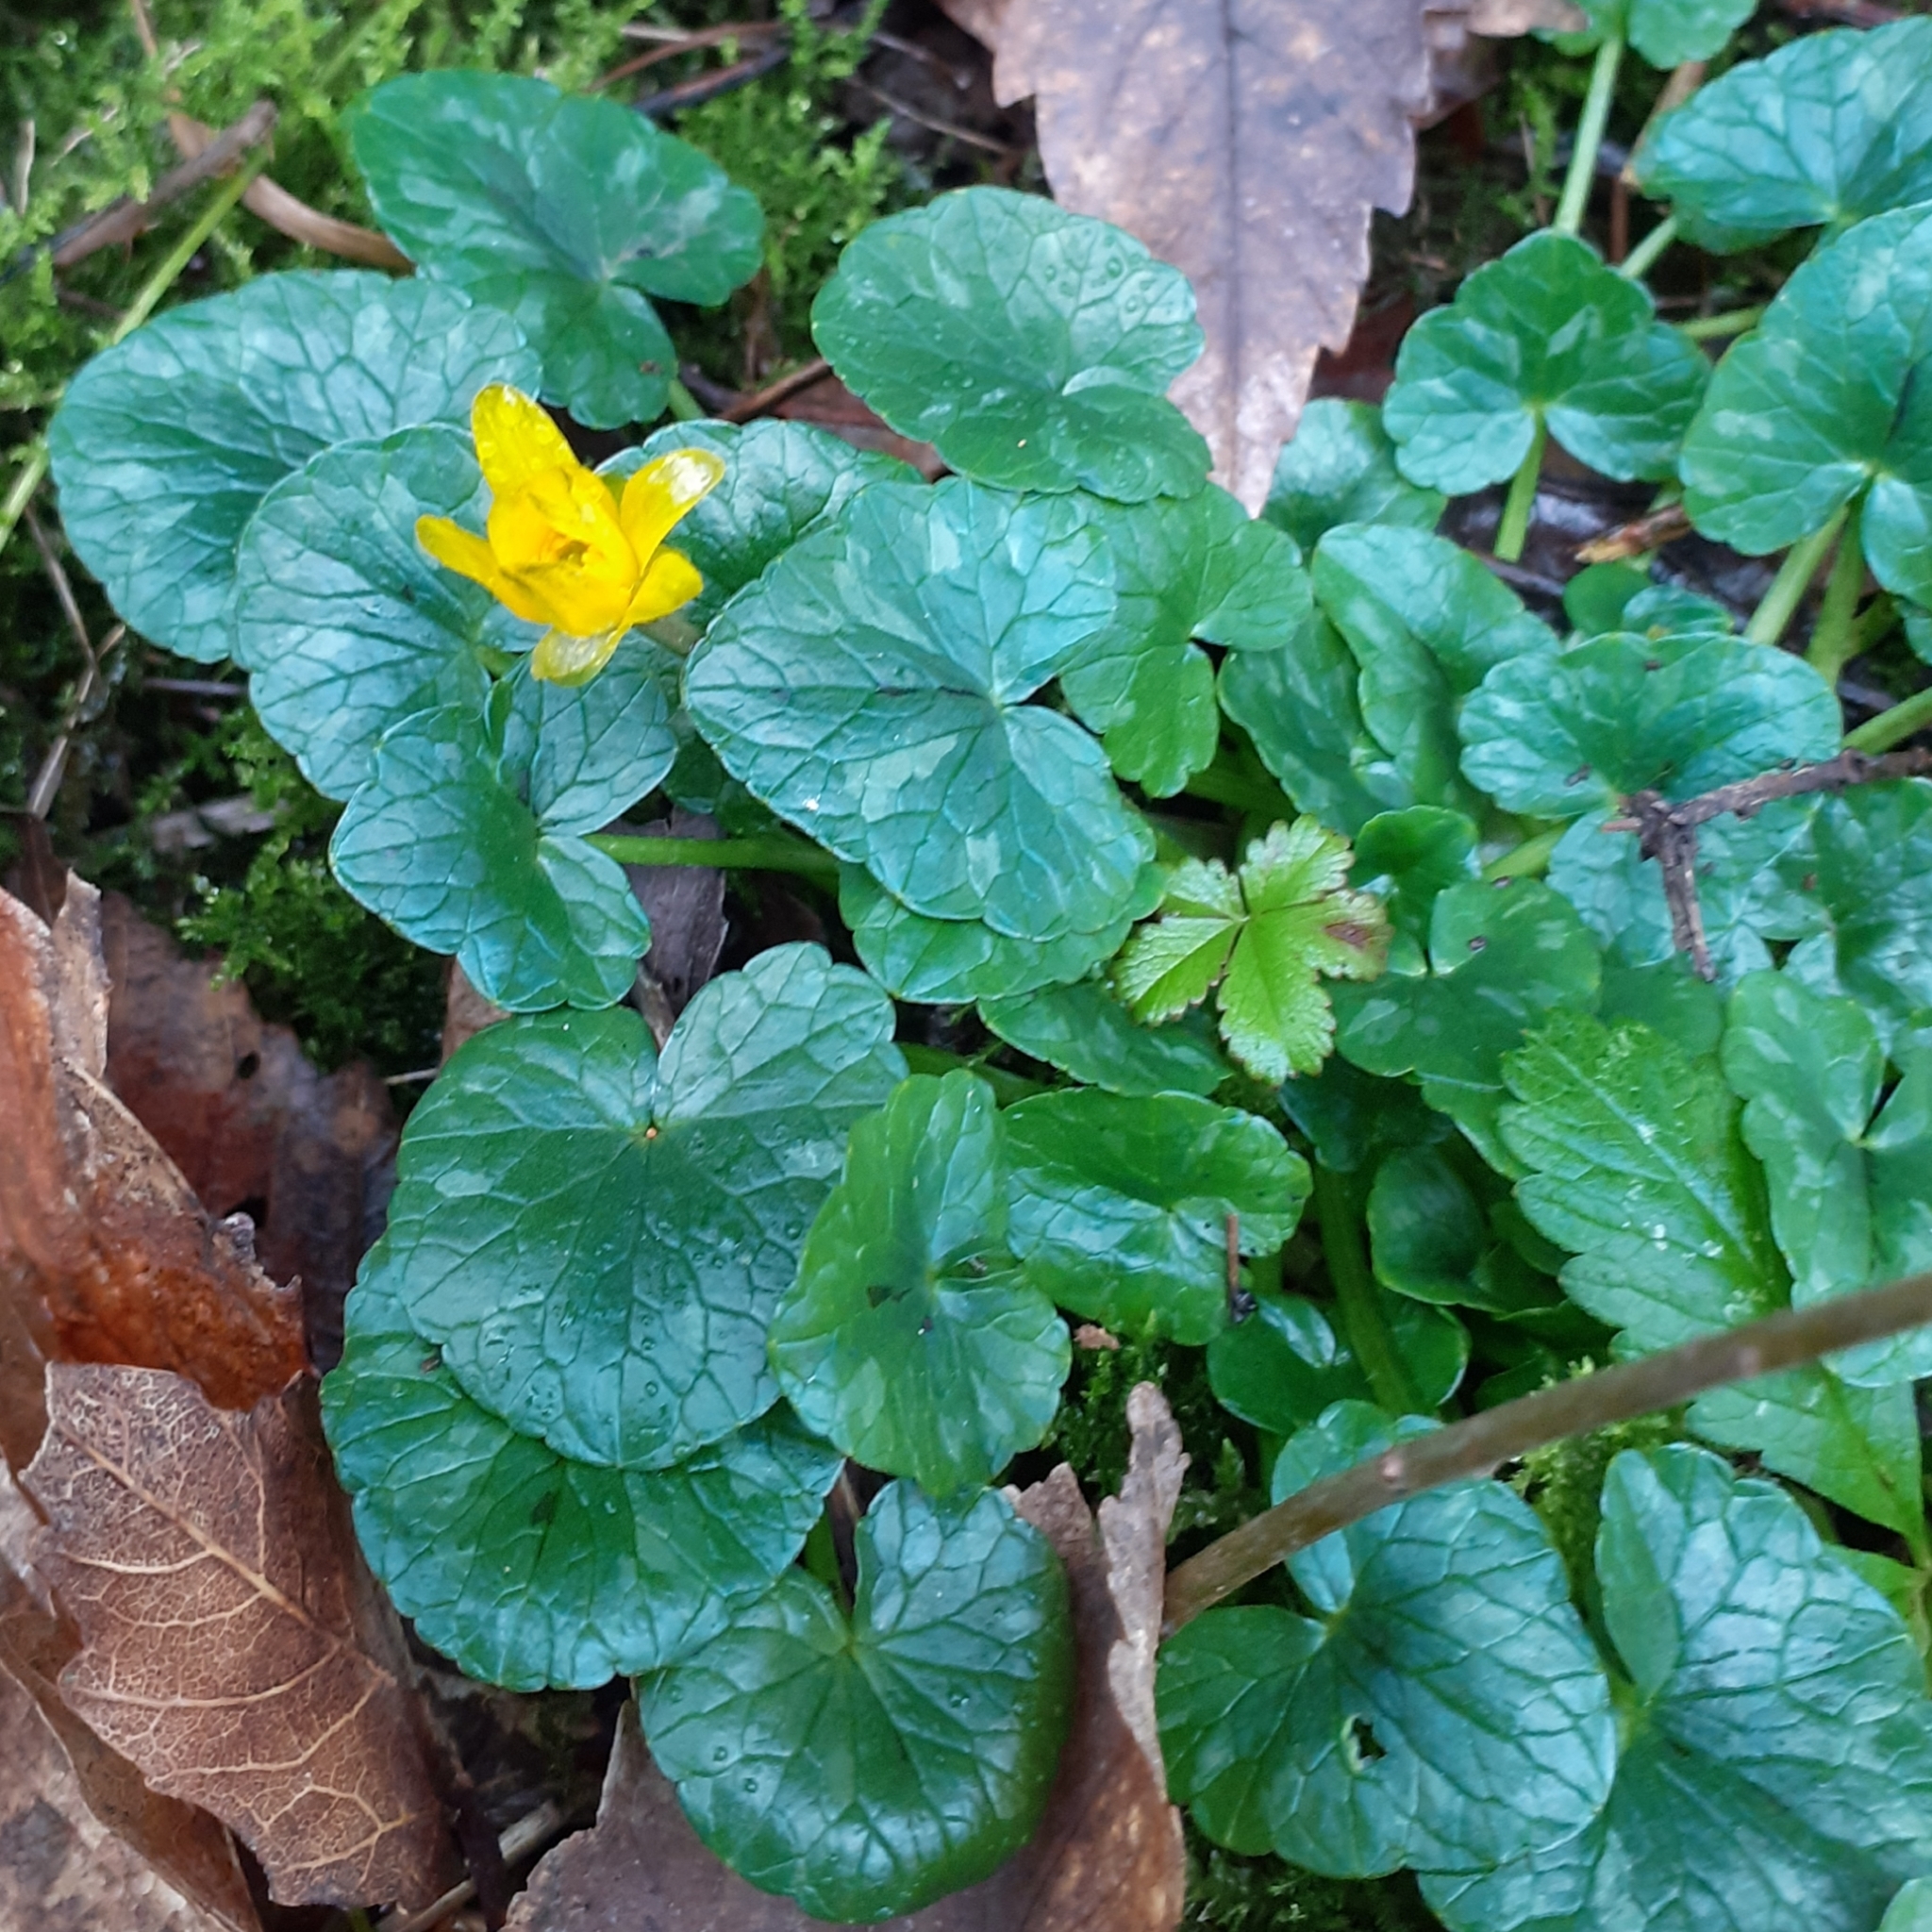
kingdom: Plantae
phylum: Tracheophyta
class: Magnoliopsida
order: Ranunculales
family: Ranunculaceae
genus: Ficaria
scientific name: Ficaria verna
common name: Lesser celandine
